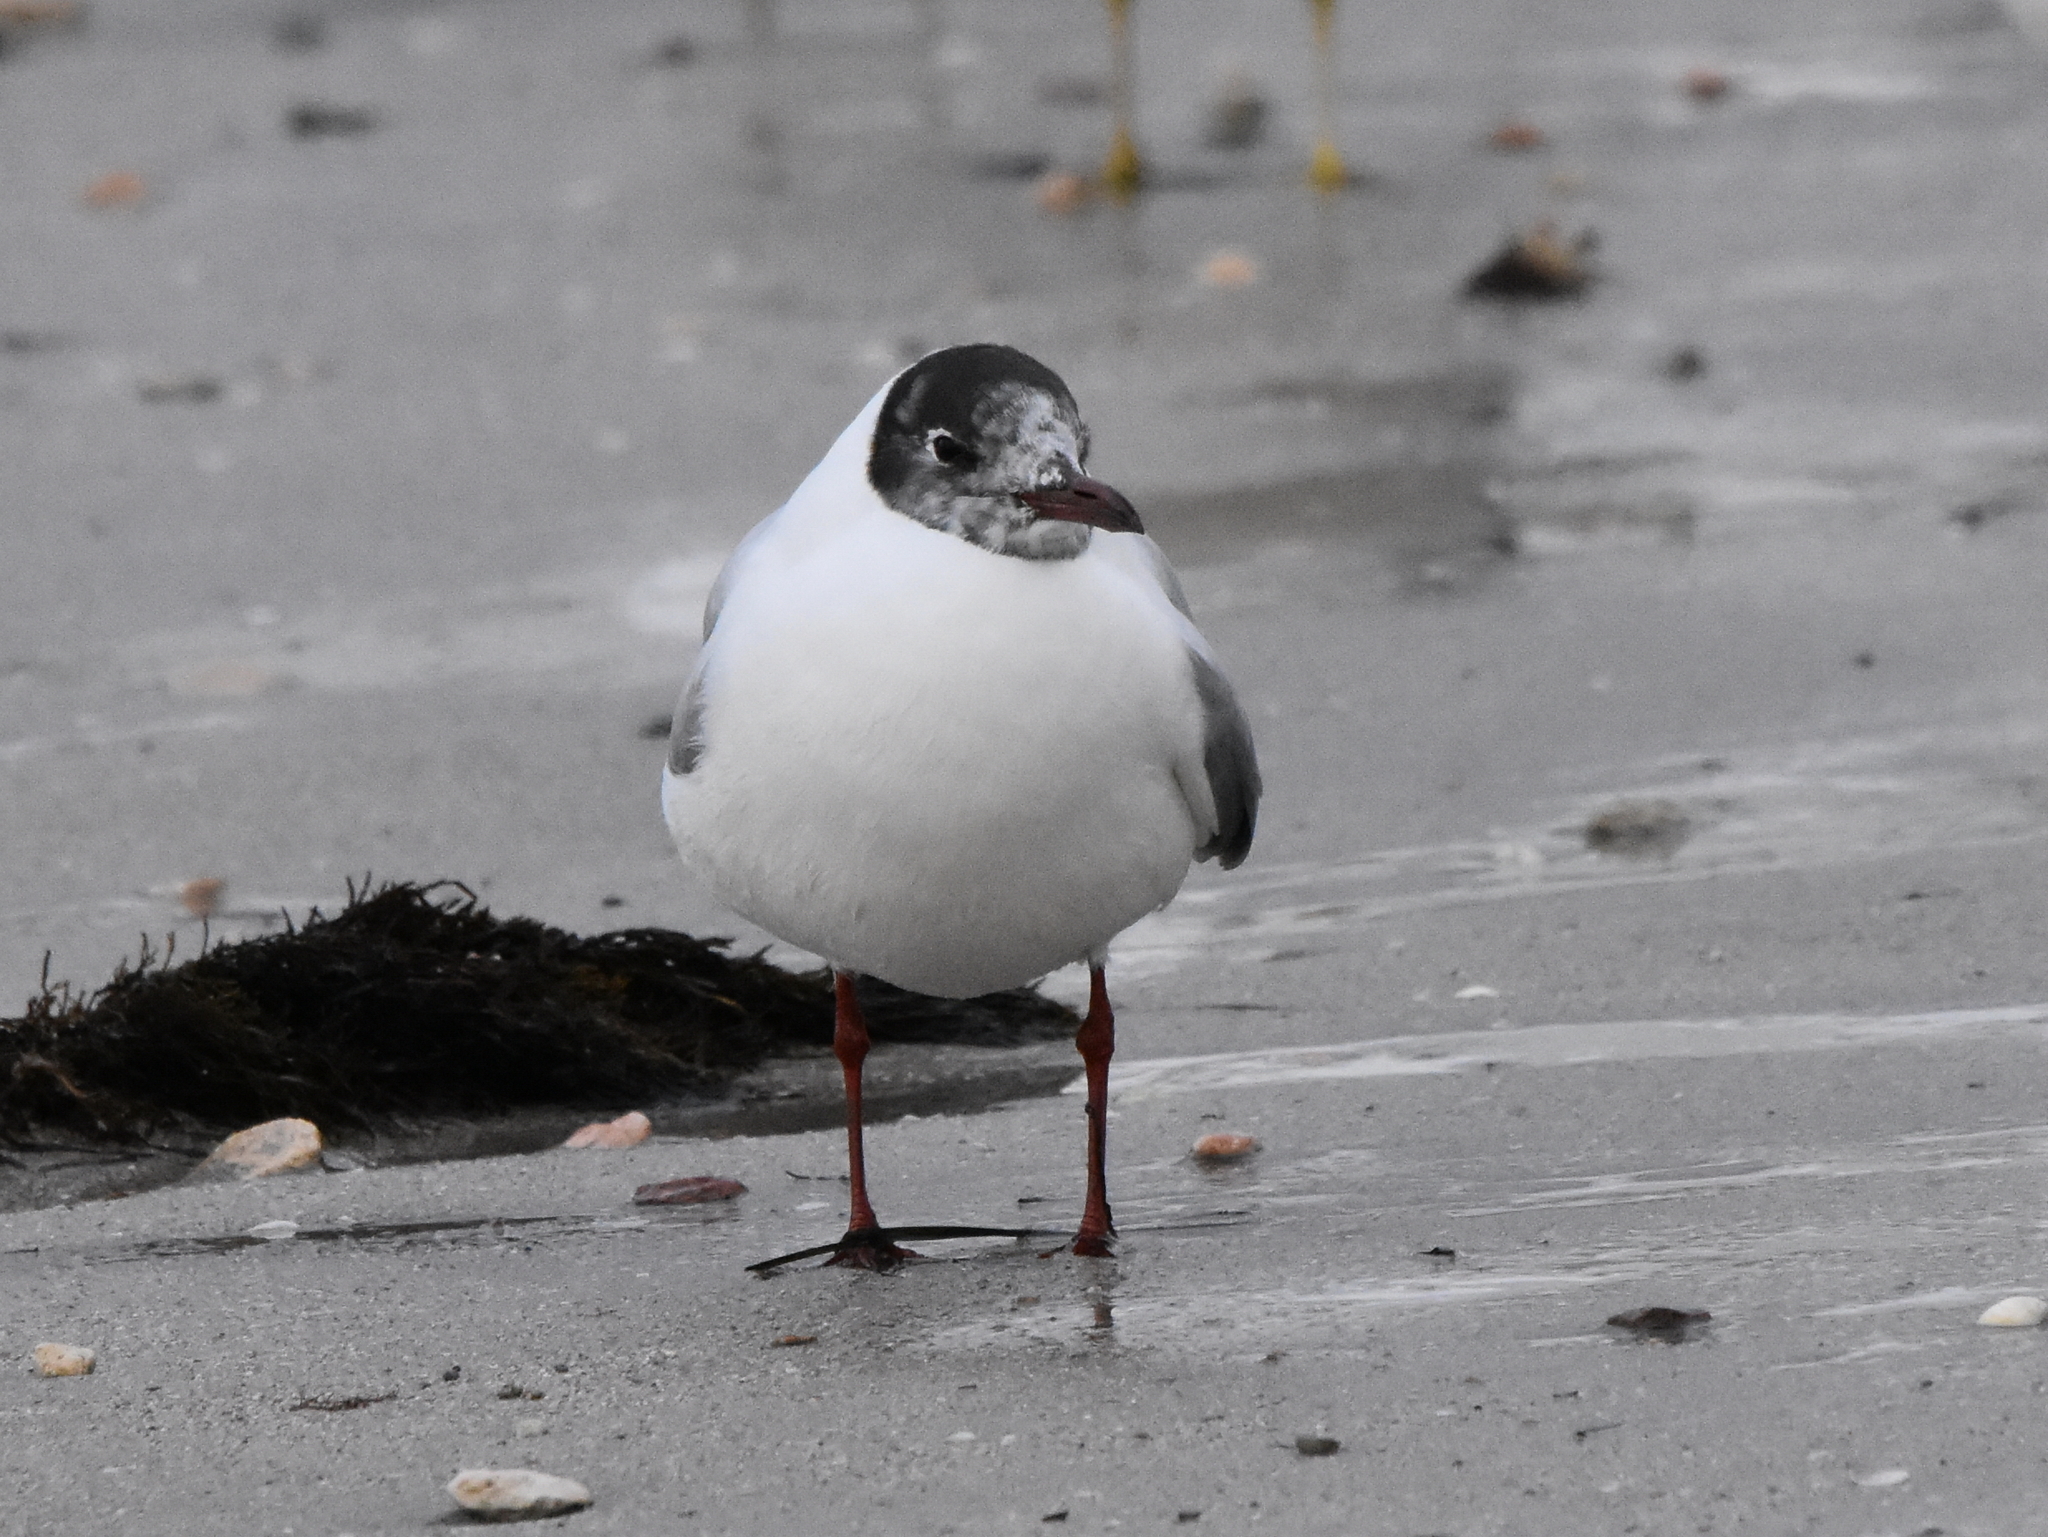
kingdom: Animalia
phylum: Chordata
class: Aves
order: Charadriiformes
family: Laridae
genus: Chroicocephalus
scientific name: Chroicocephalus ridibundus
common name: Black-headed gull
